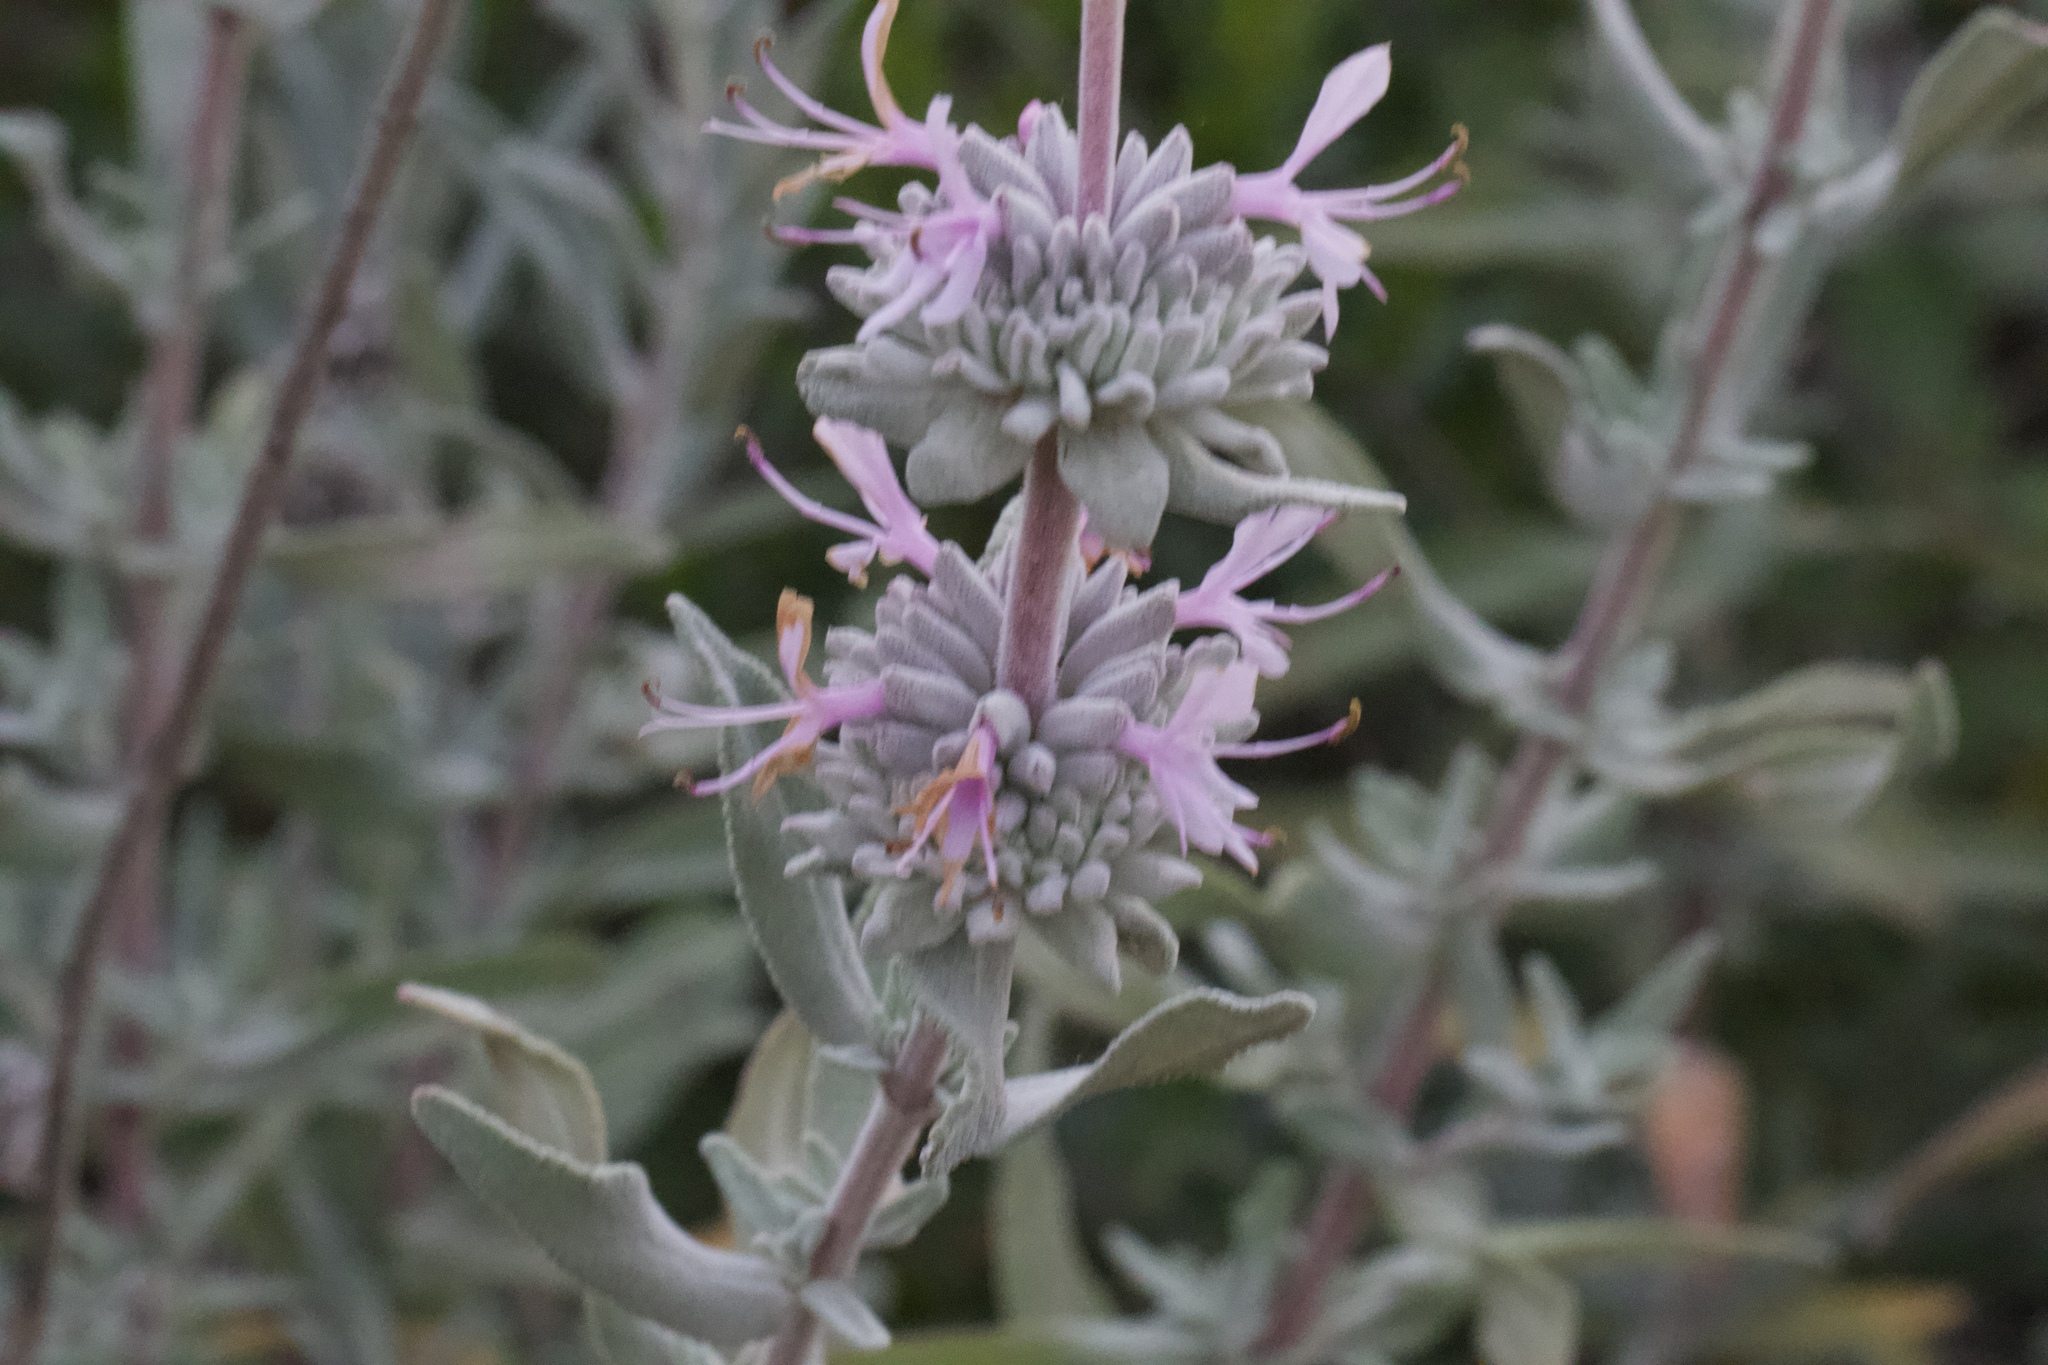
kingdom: Plantae
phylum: Tracheophyta
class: Magnoliopsida
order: Lamiales
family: Lamiaceae
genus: Salvia
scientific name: Salvia leucophylla
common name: Purple sage
